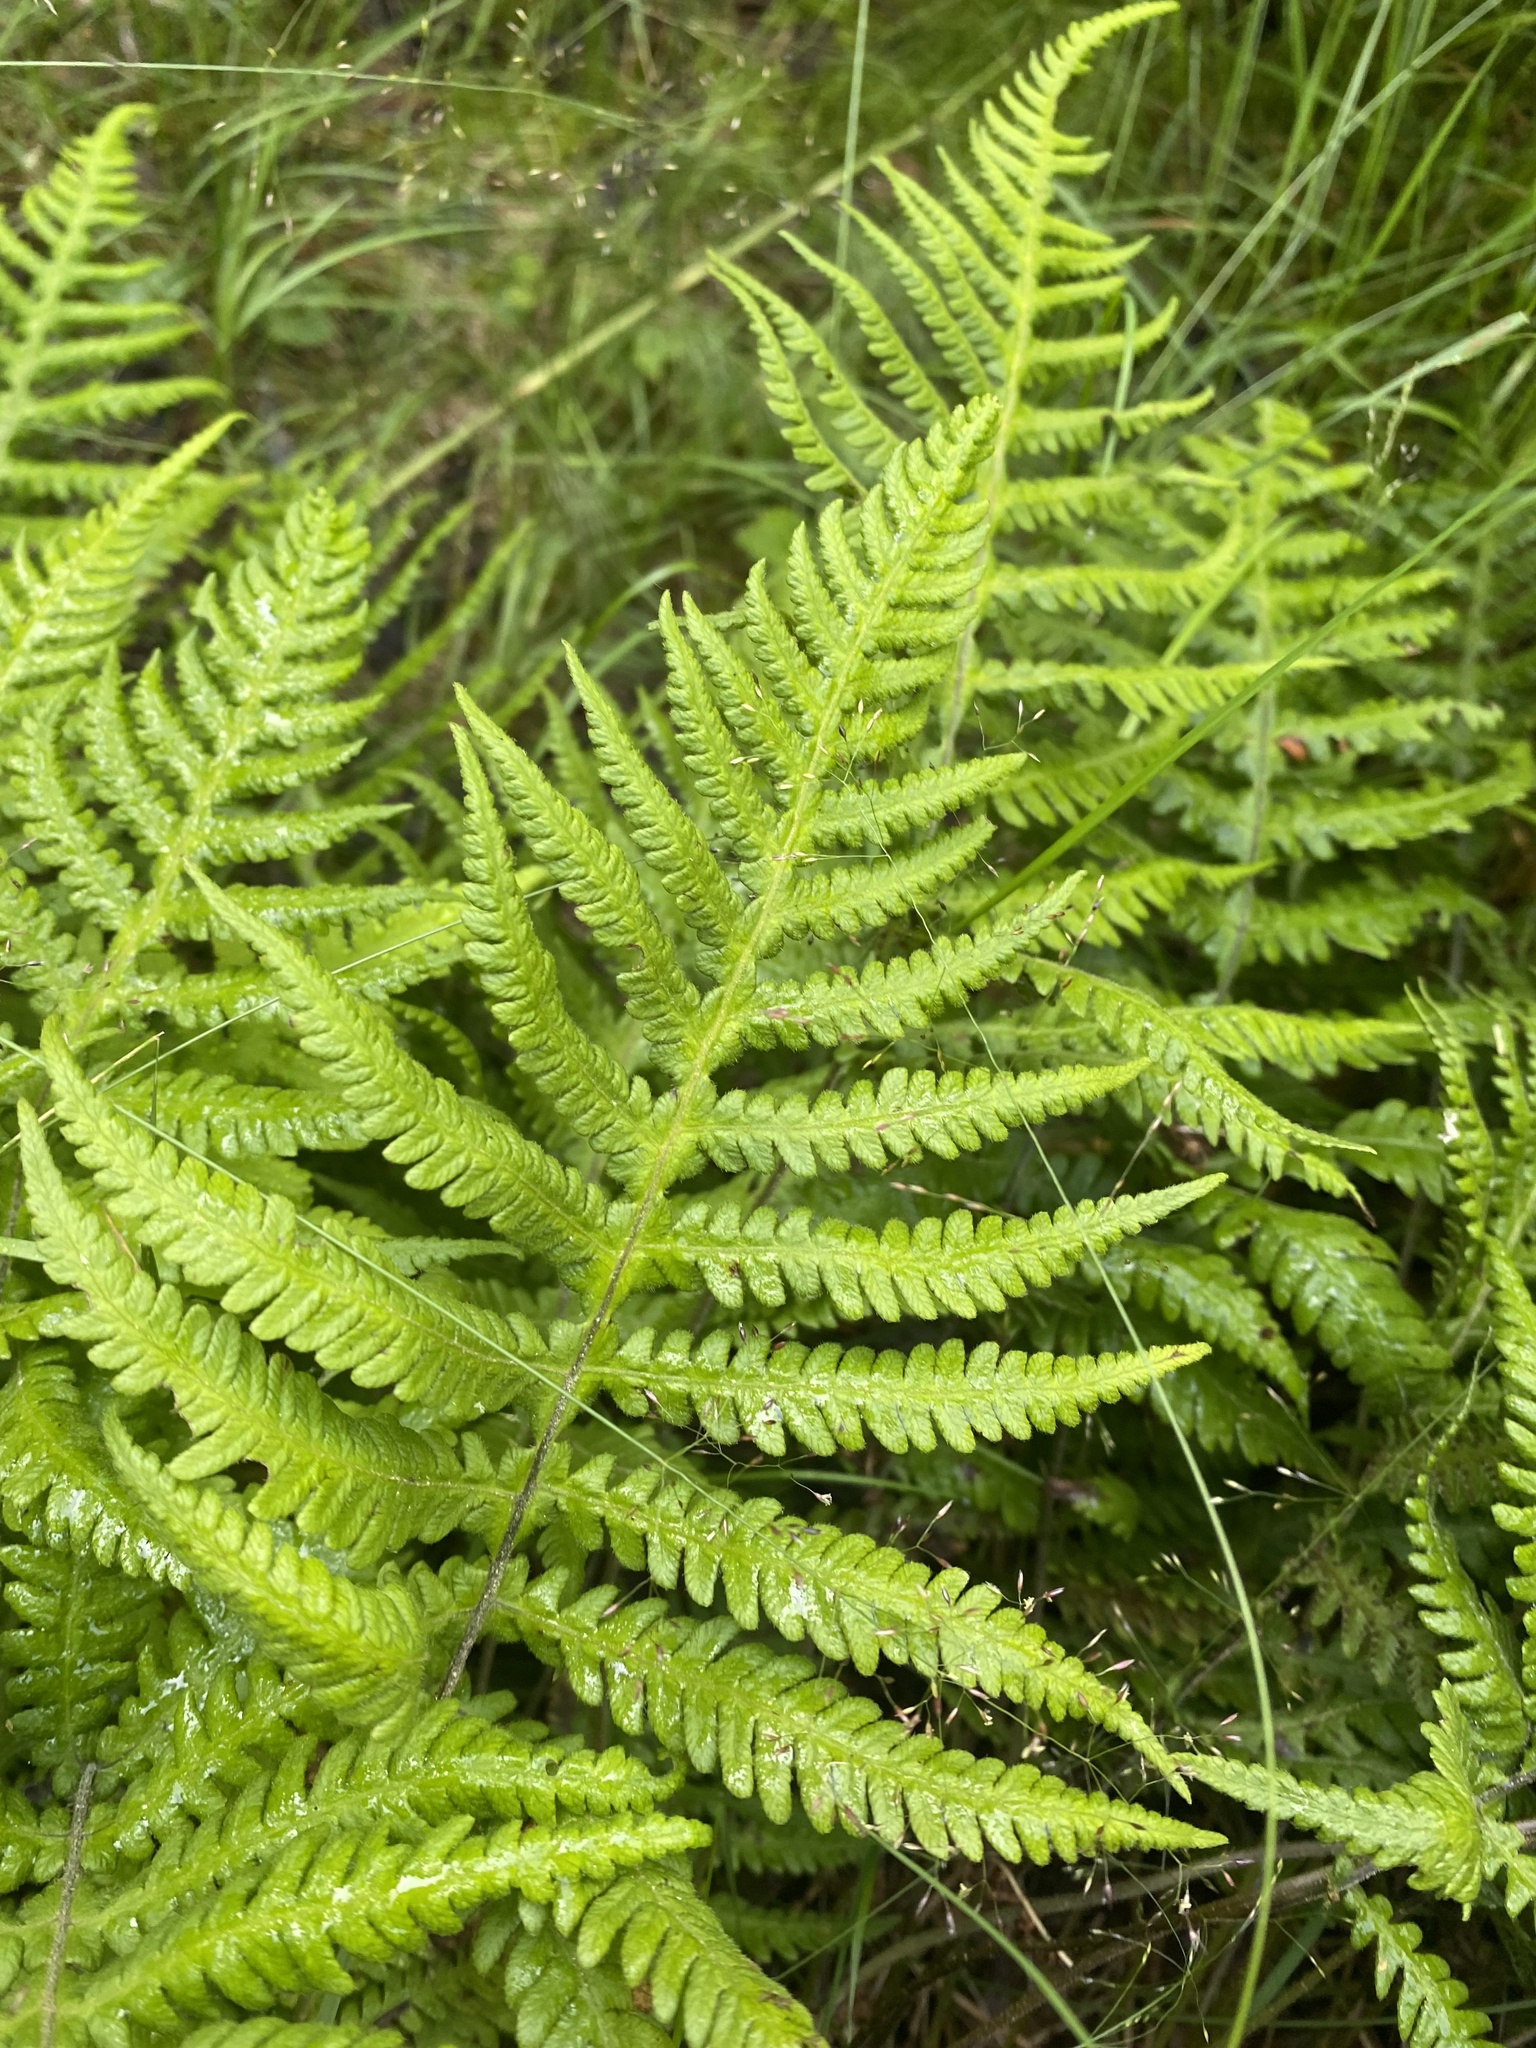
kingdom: Plantae
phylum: Tracheophyta
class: Polypodiopsida
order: Polypodiales
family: Thelypteridaceae
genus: Phegopteris
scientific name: Phegopteris connectilis
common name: Beech fern
